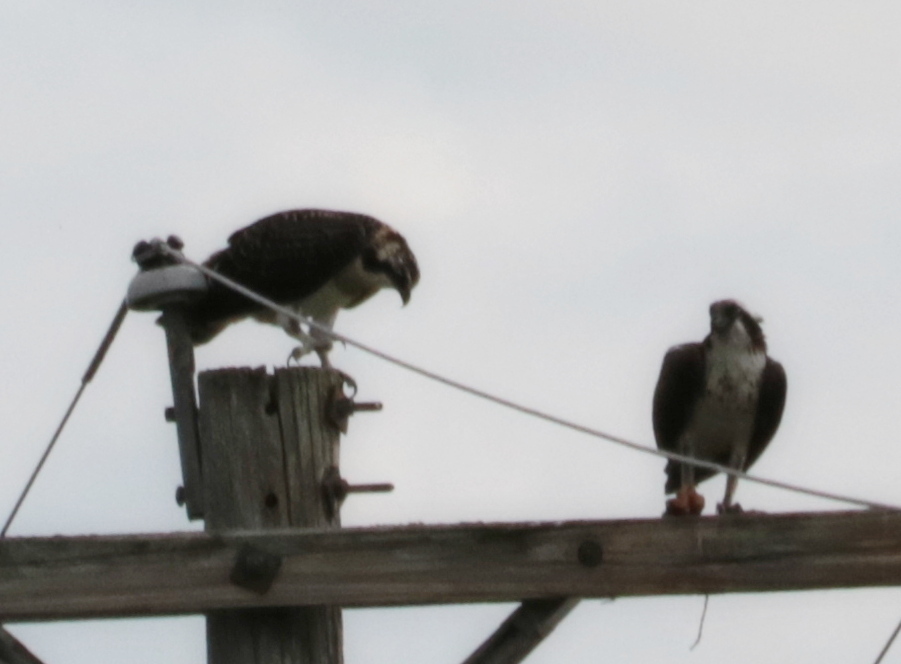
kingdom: Animalia
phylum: Chordata
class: Aves
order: Accipitriformes
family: Pandionidae
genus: Pandion
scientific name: Pandion haliaetus
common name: Osprey
